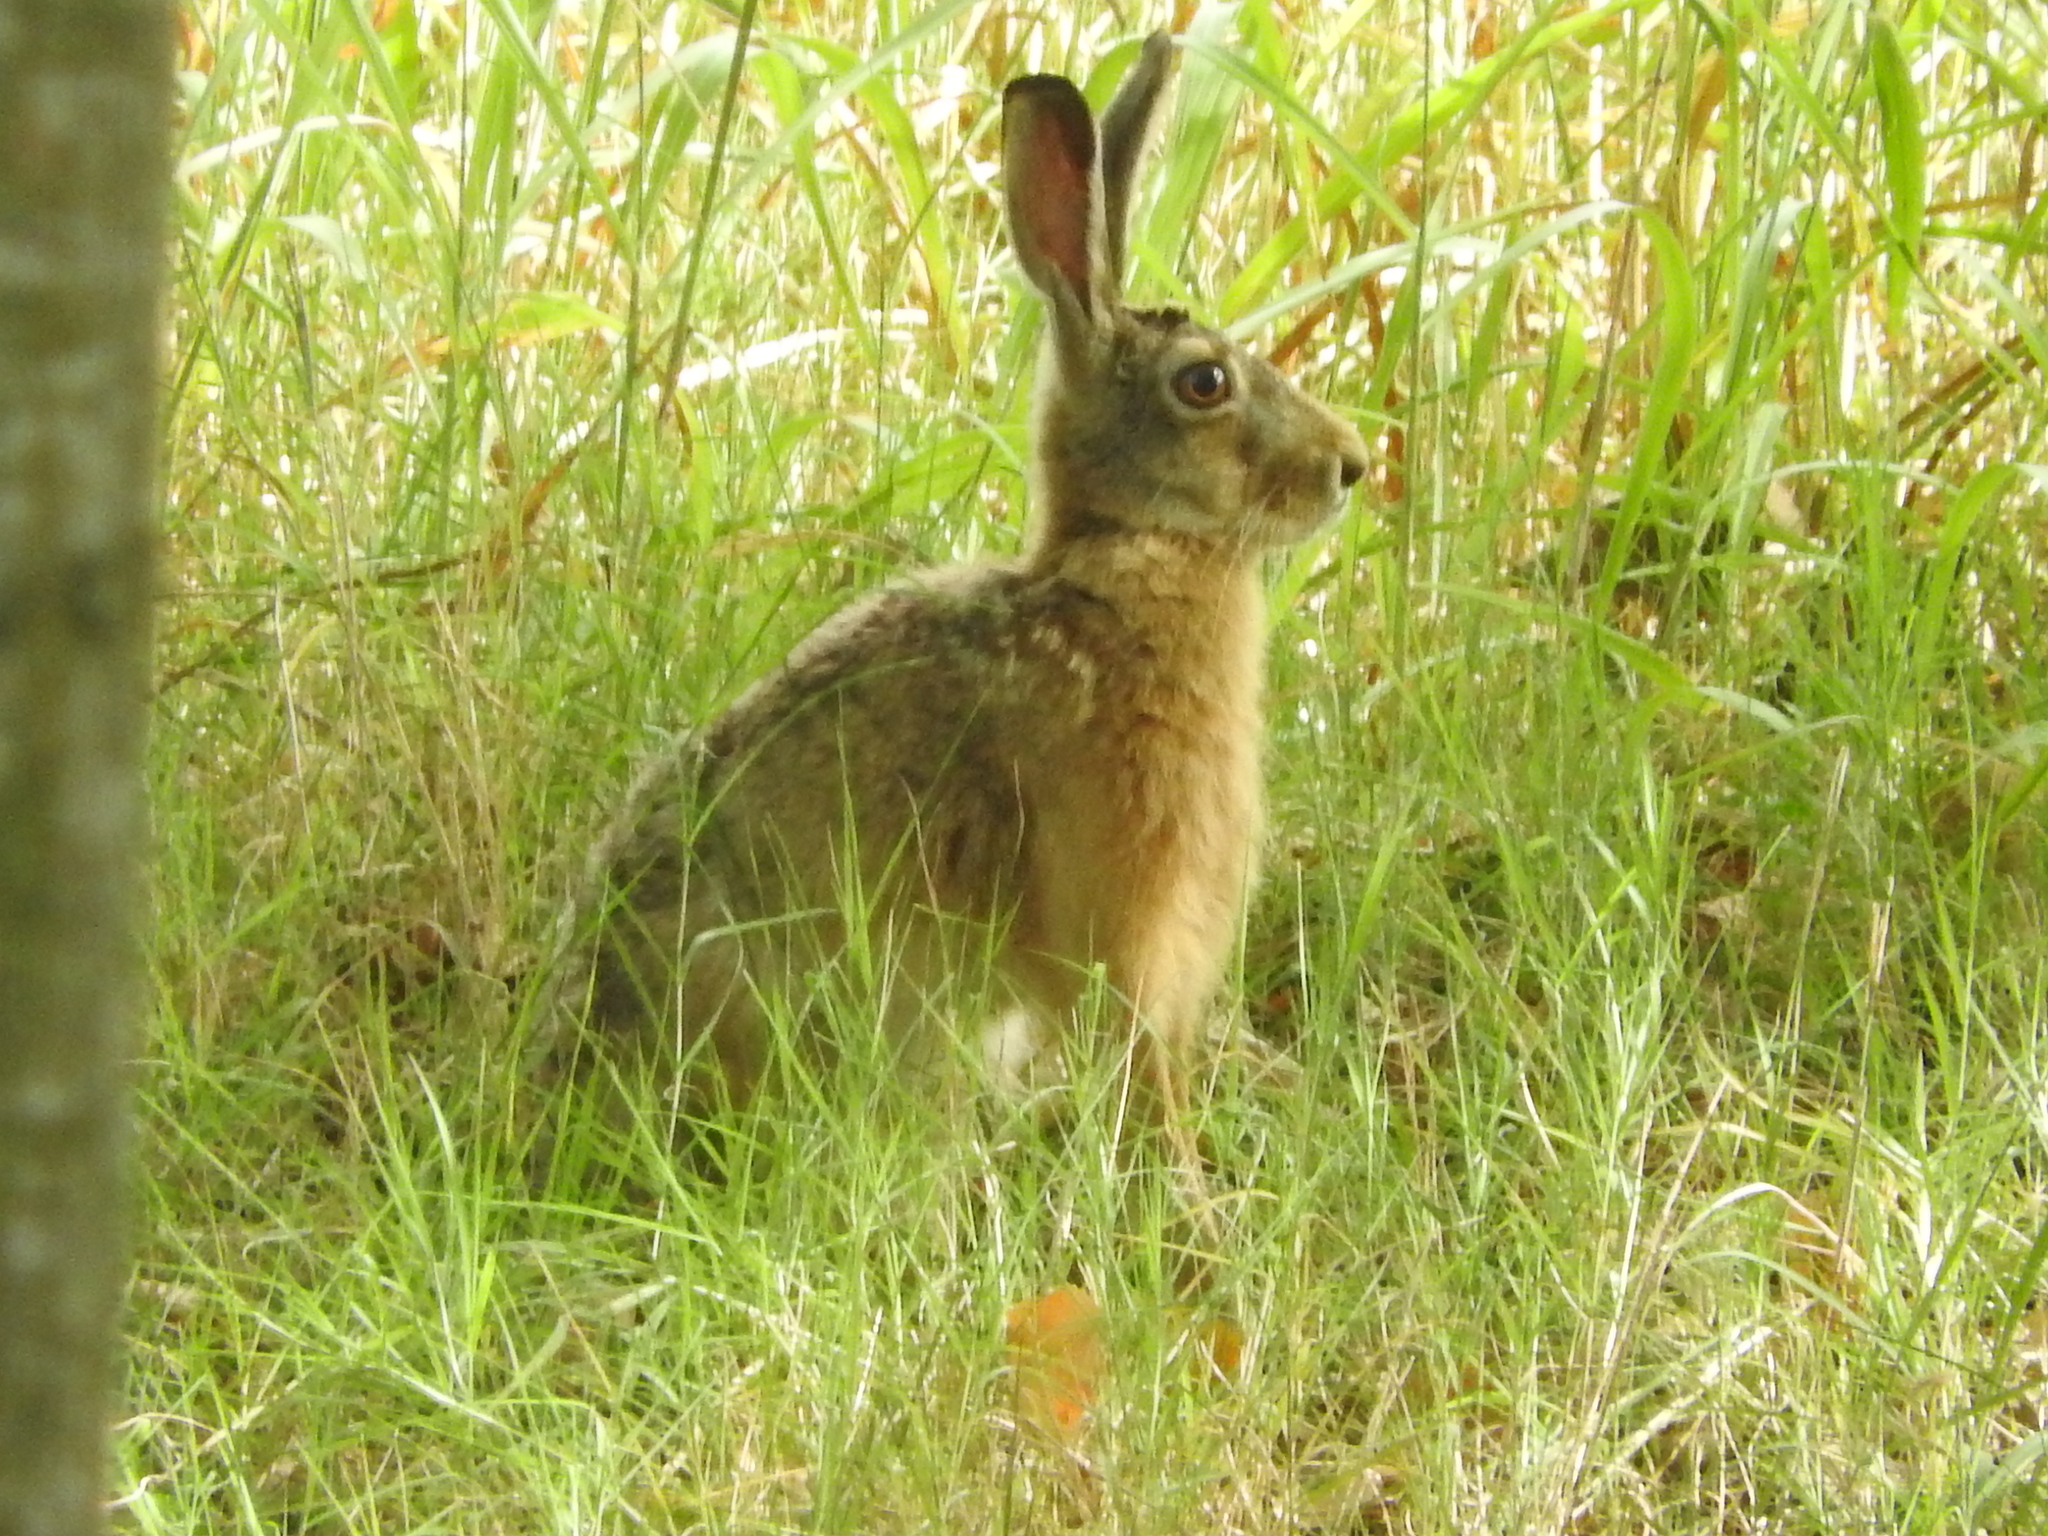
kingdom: Animalia
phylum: Chordata
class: Mammalia
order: Lagomorpha
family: Leporidae
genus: Lepus
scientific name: Lepus europaeus
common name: European hare
